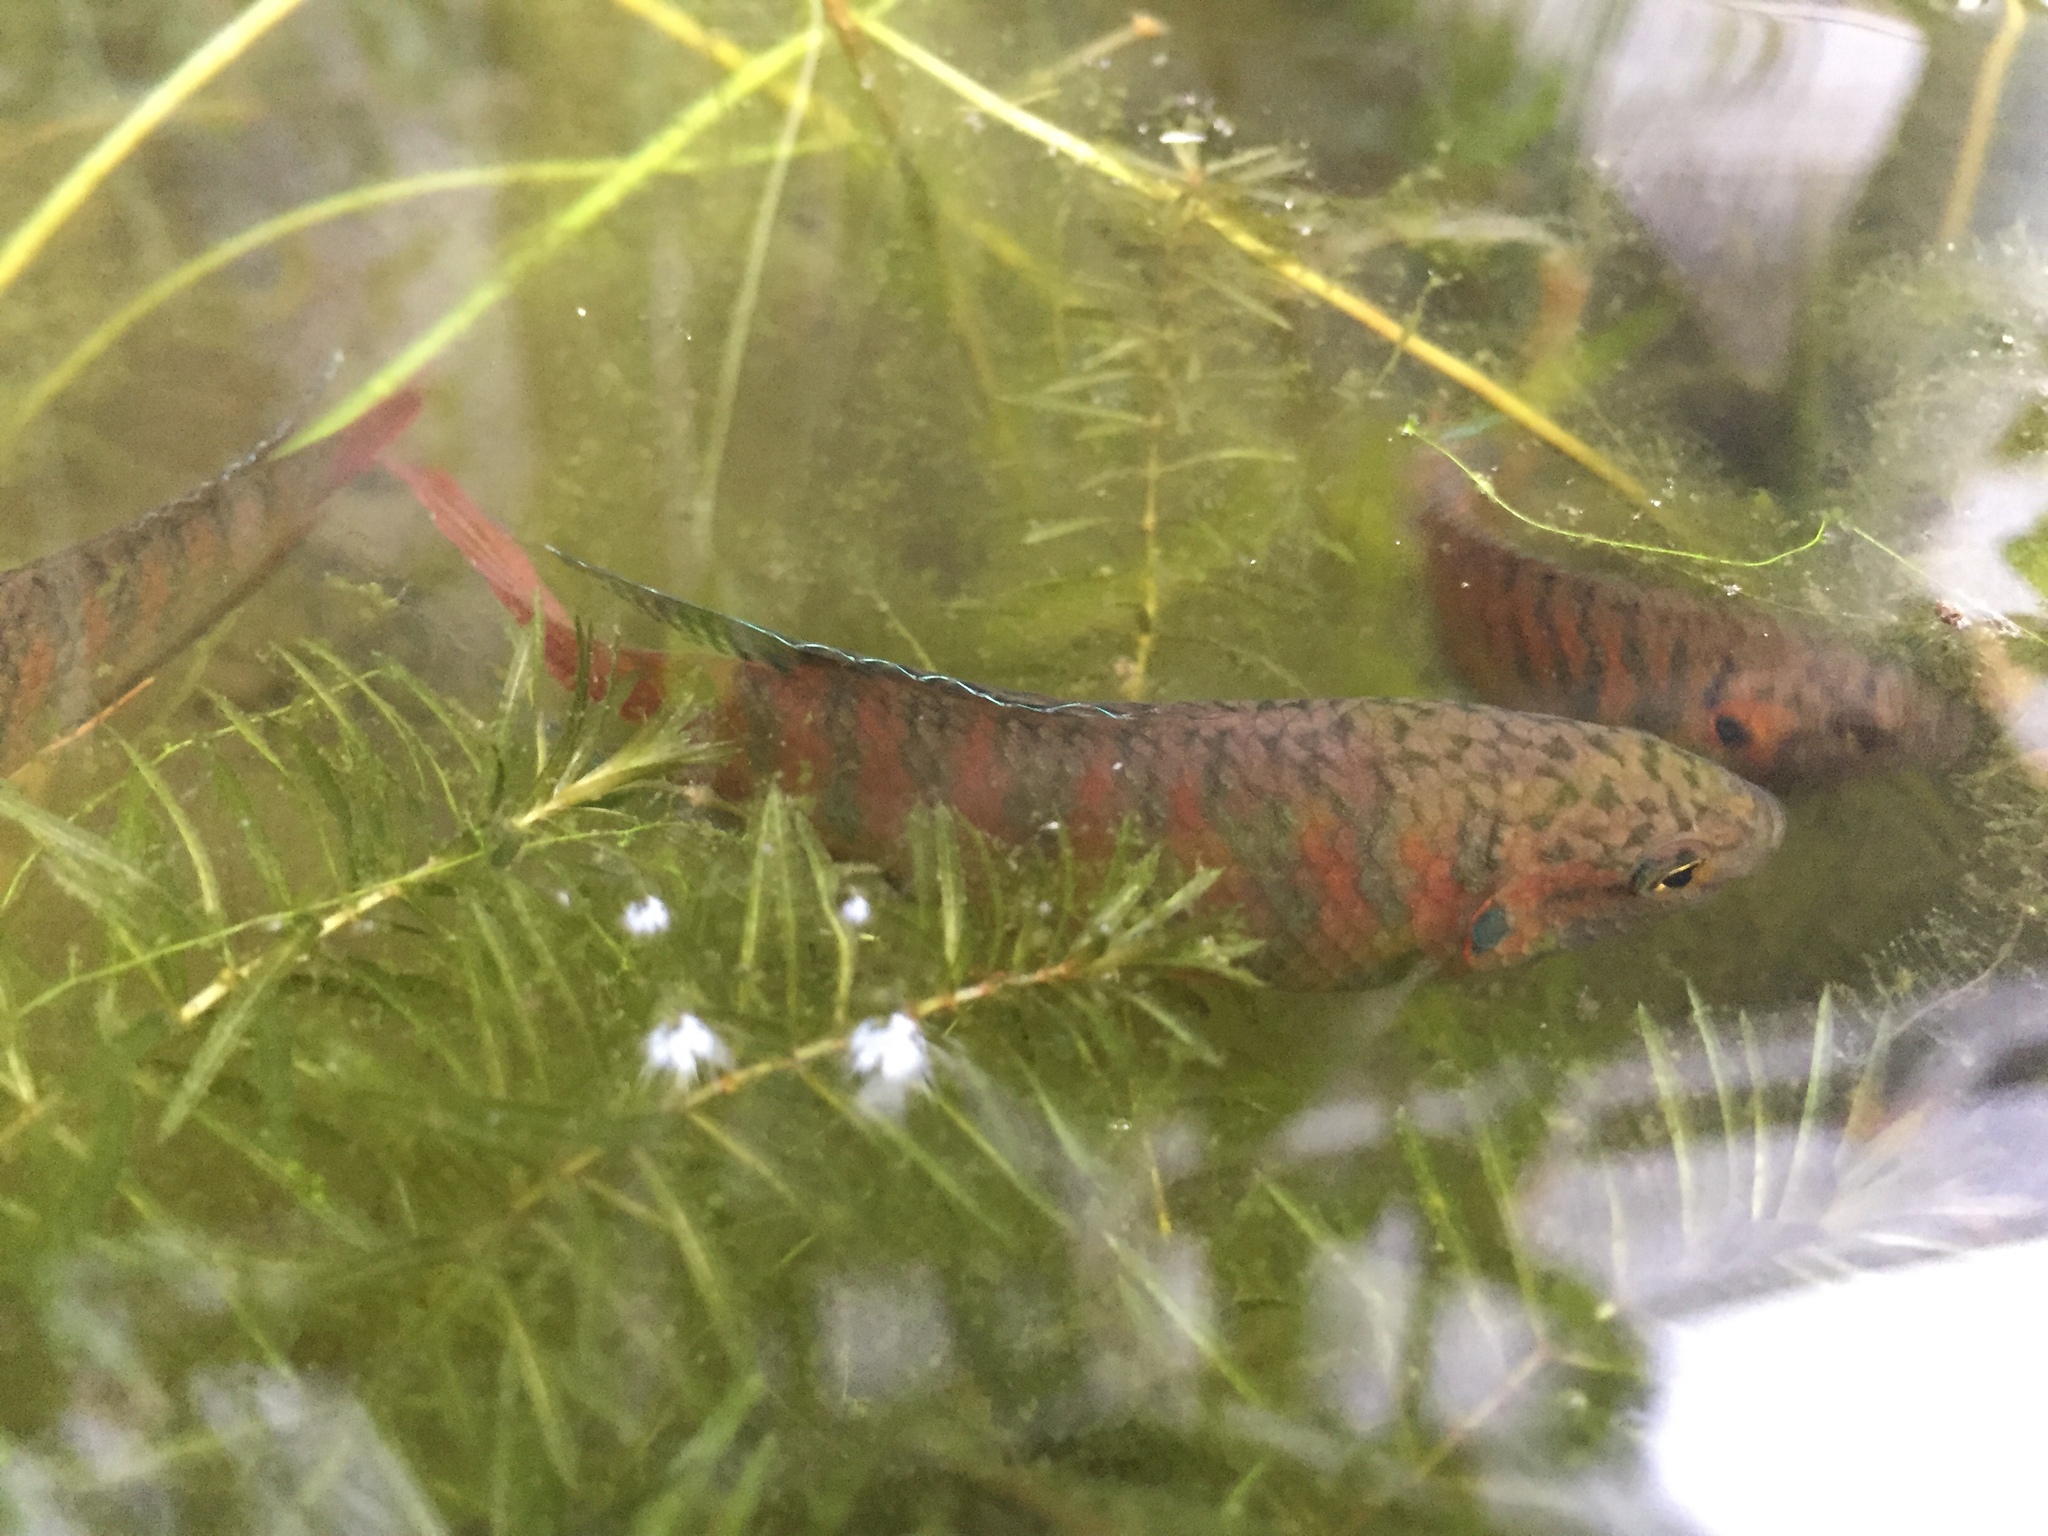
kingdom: Animalia
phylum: Chordata
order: Perciformes
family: Osphronemidae
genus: Macropodus
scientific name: Macropodus opercularis
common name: Paradise fish
